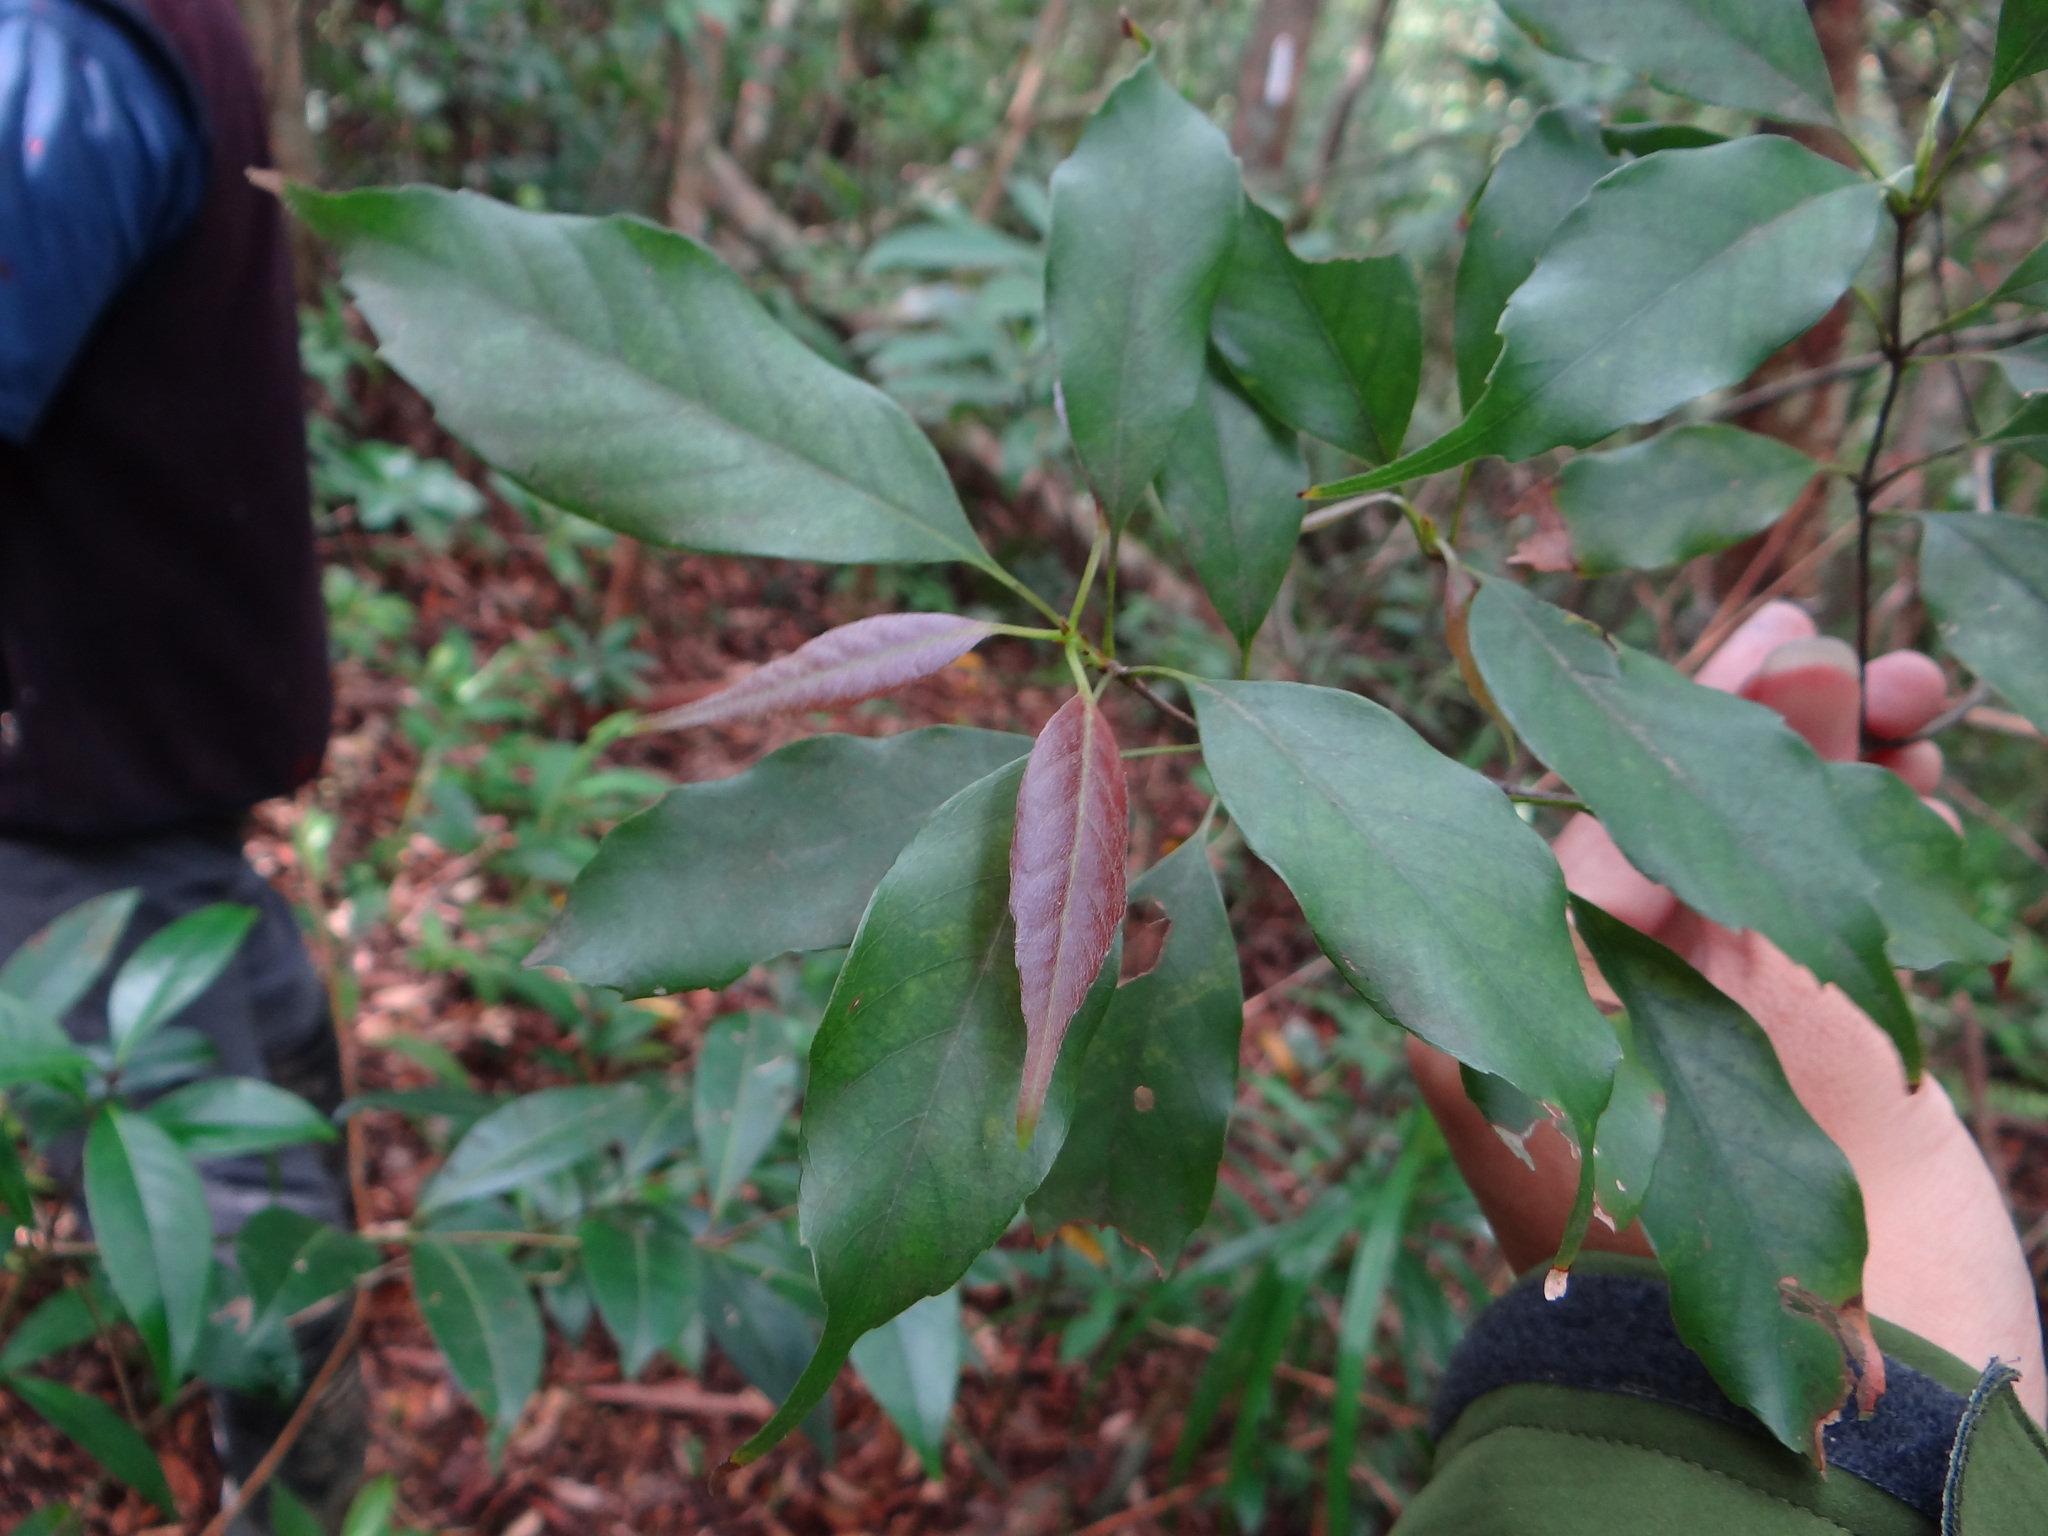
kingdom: Plantae
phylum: Tracheophyta
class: Magnoliopsida
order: Fagales
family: Fagaceae
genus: Quercus
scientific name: Quercus longinux
